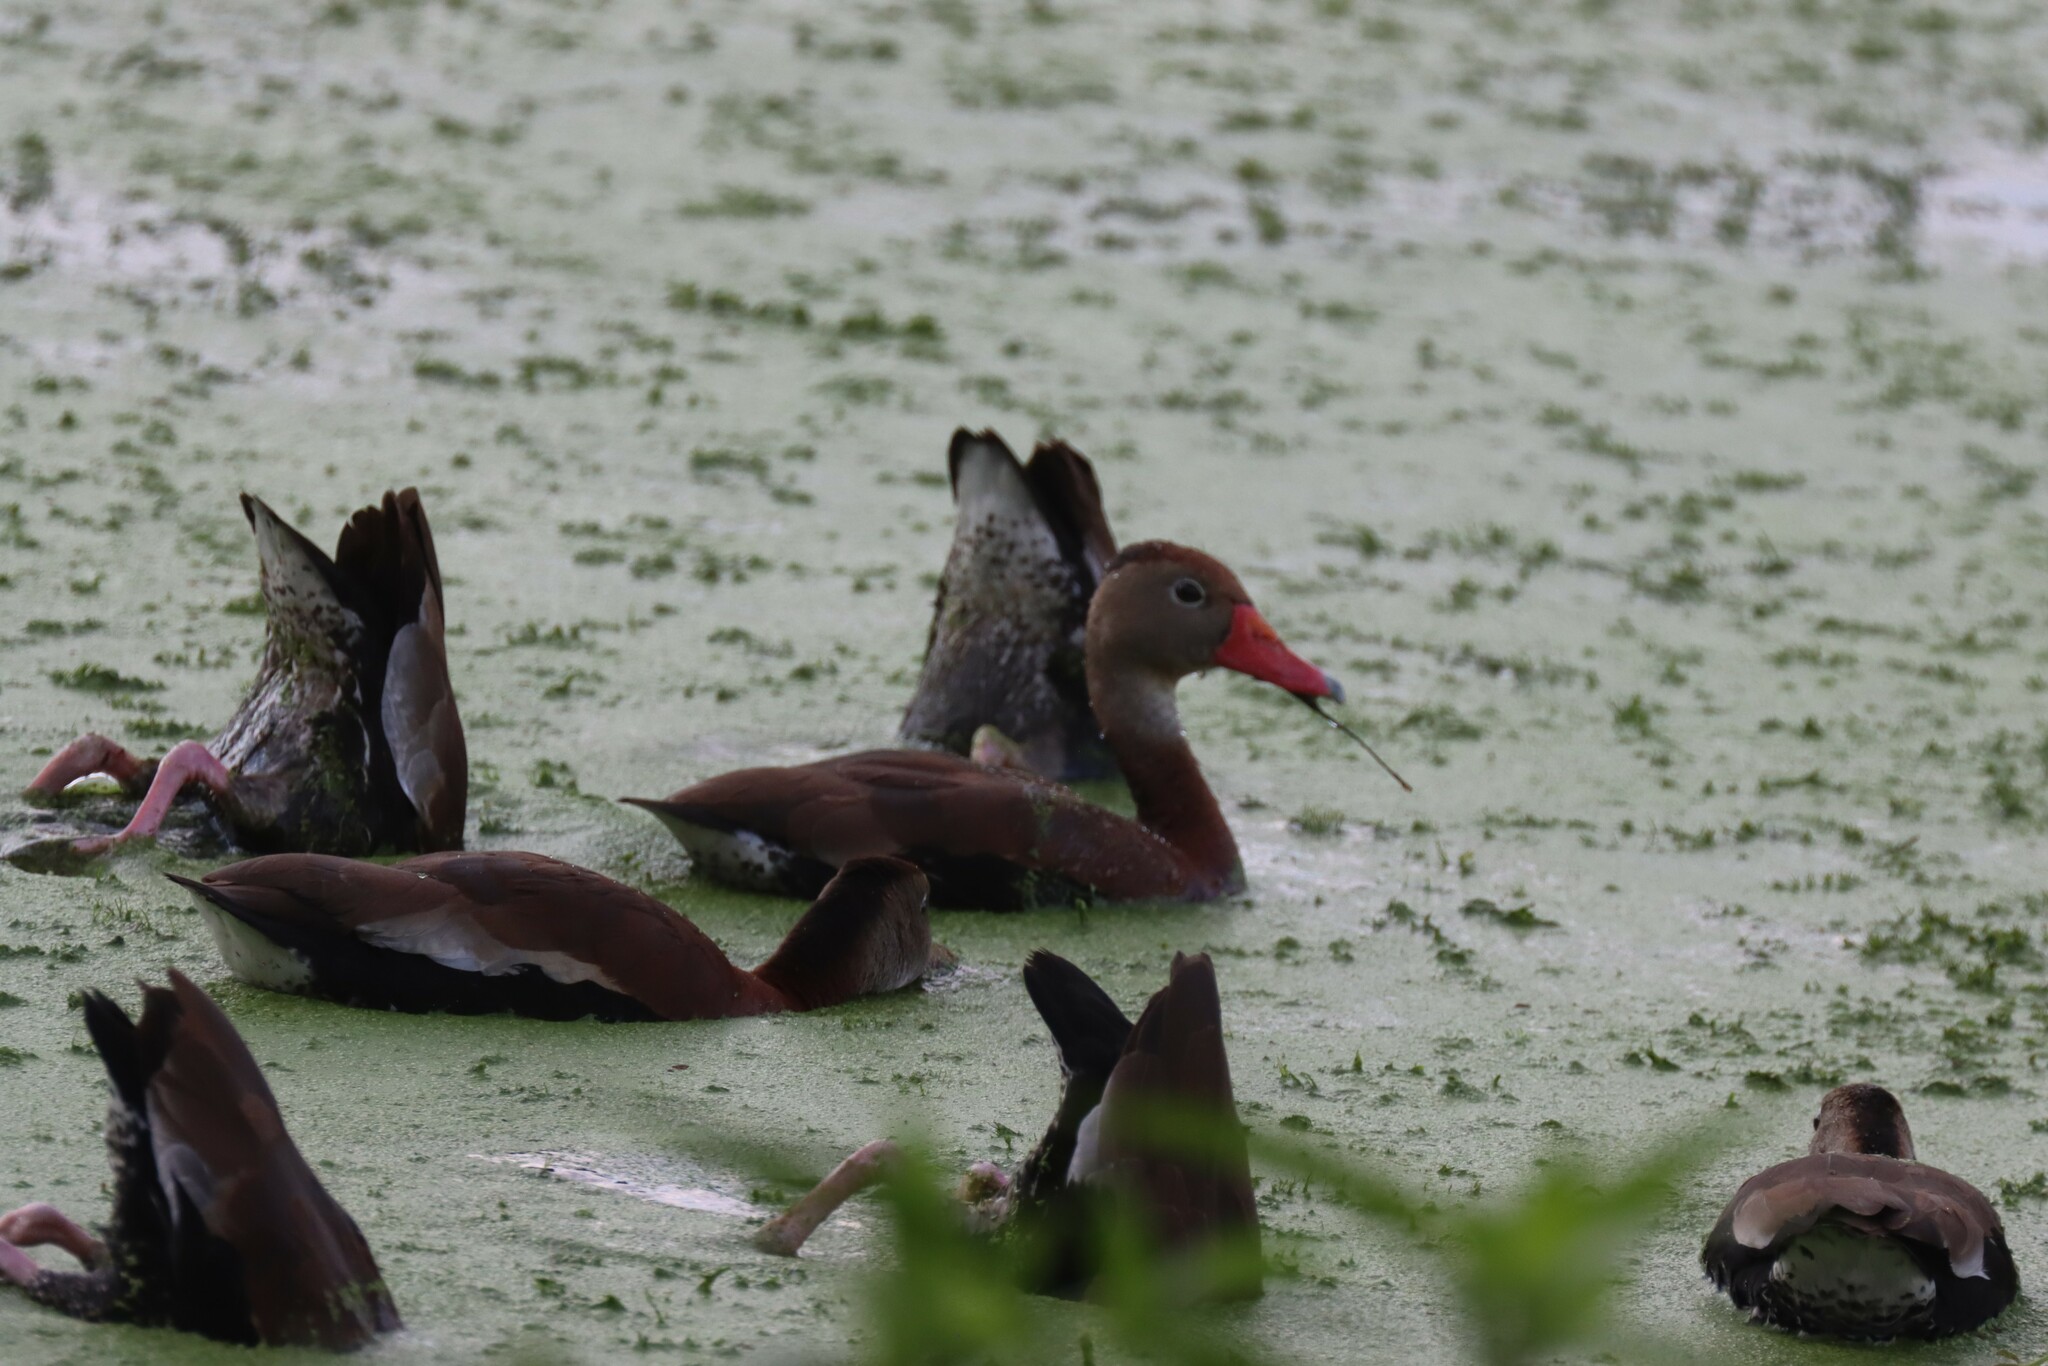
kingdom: Animalia
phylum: Chordata
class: Aves
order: Anseriformes
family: Anatidae
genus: Dendrocygna
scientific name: Dendrocygna autumnalis
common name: Black-bellied whistling duck
